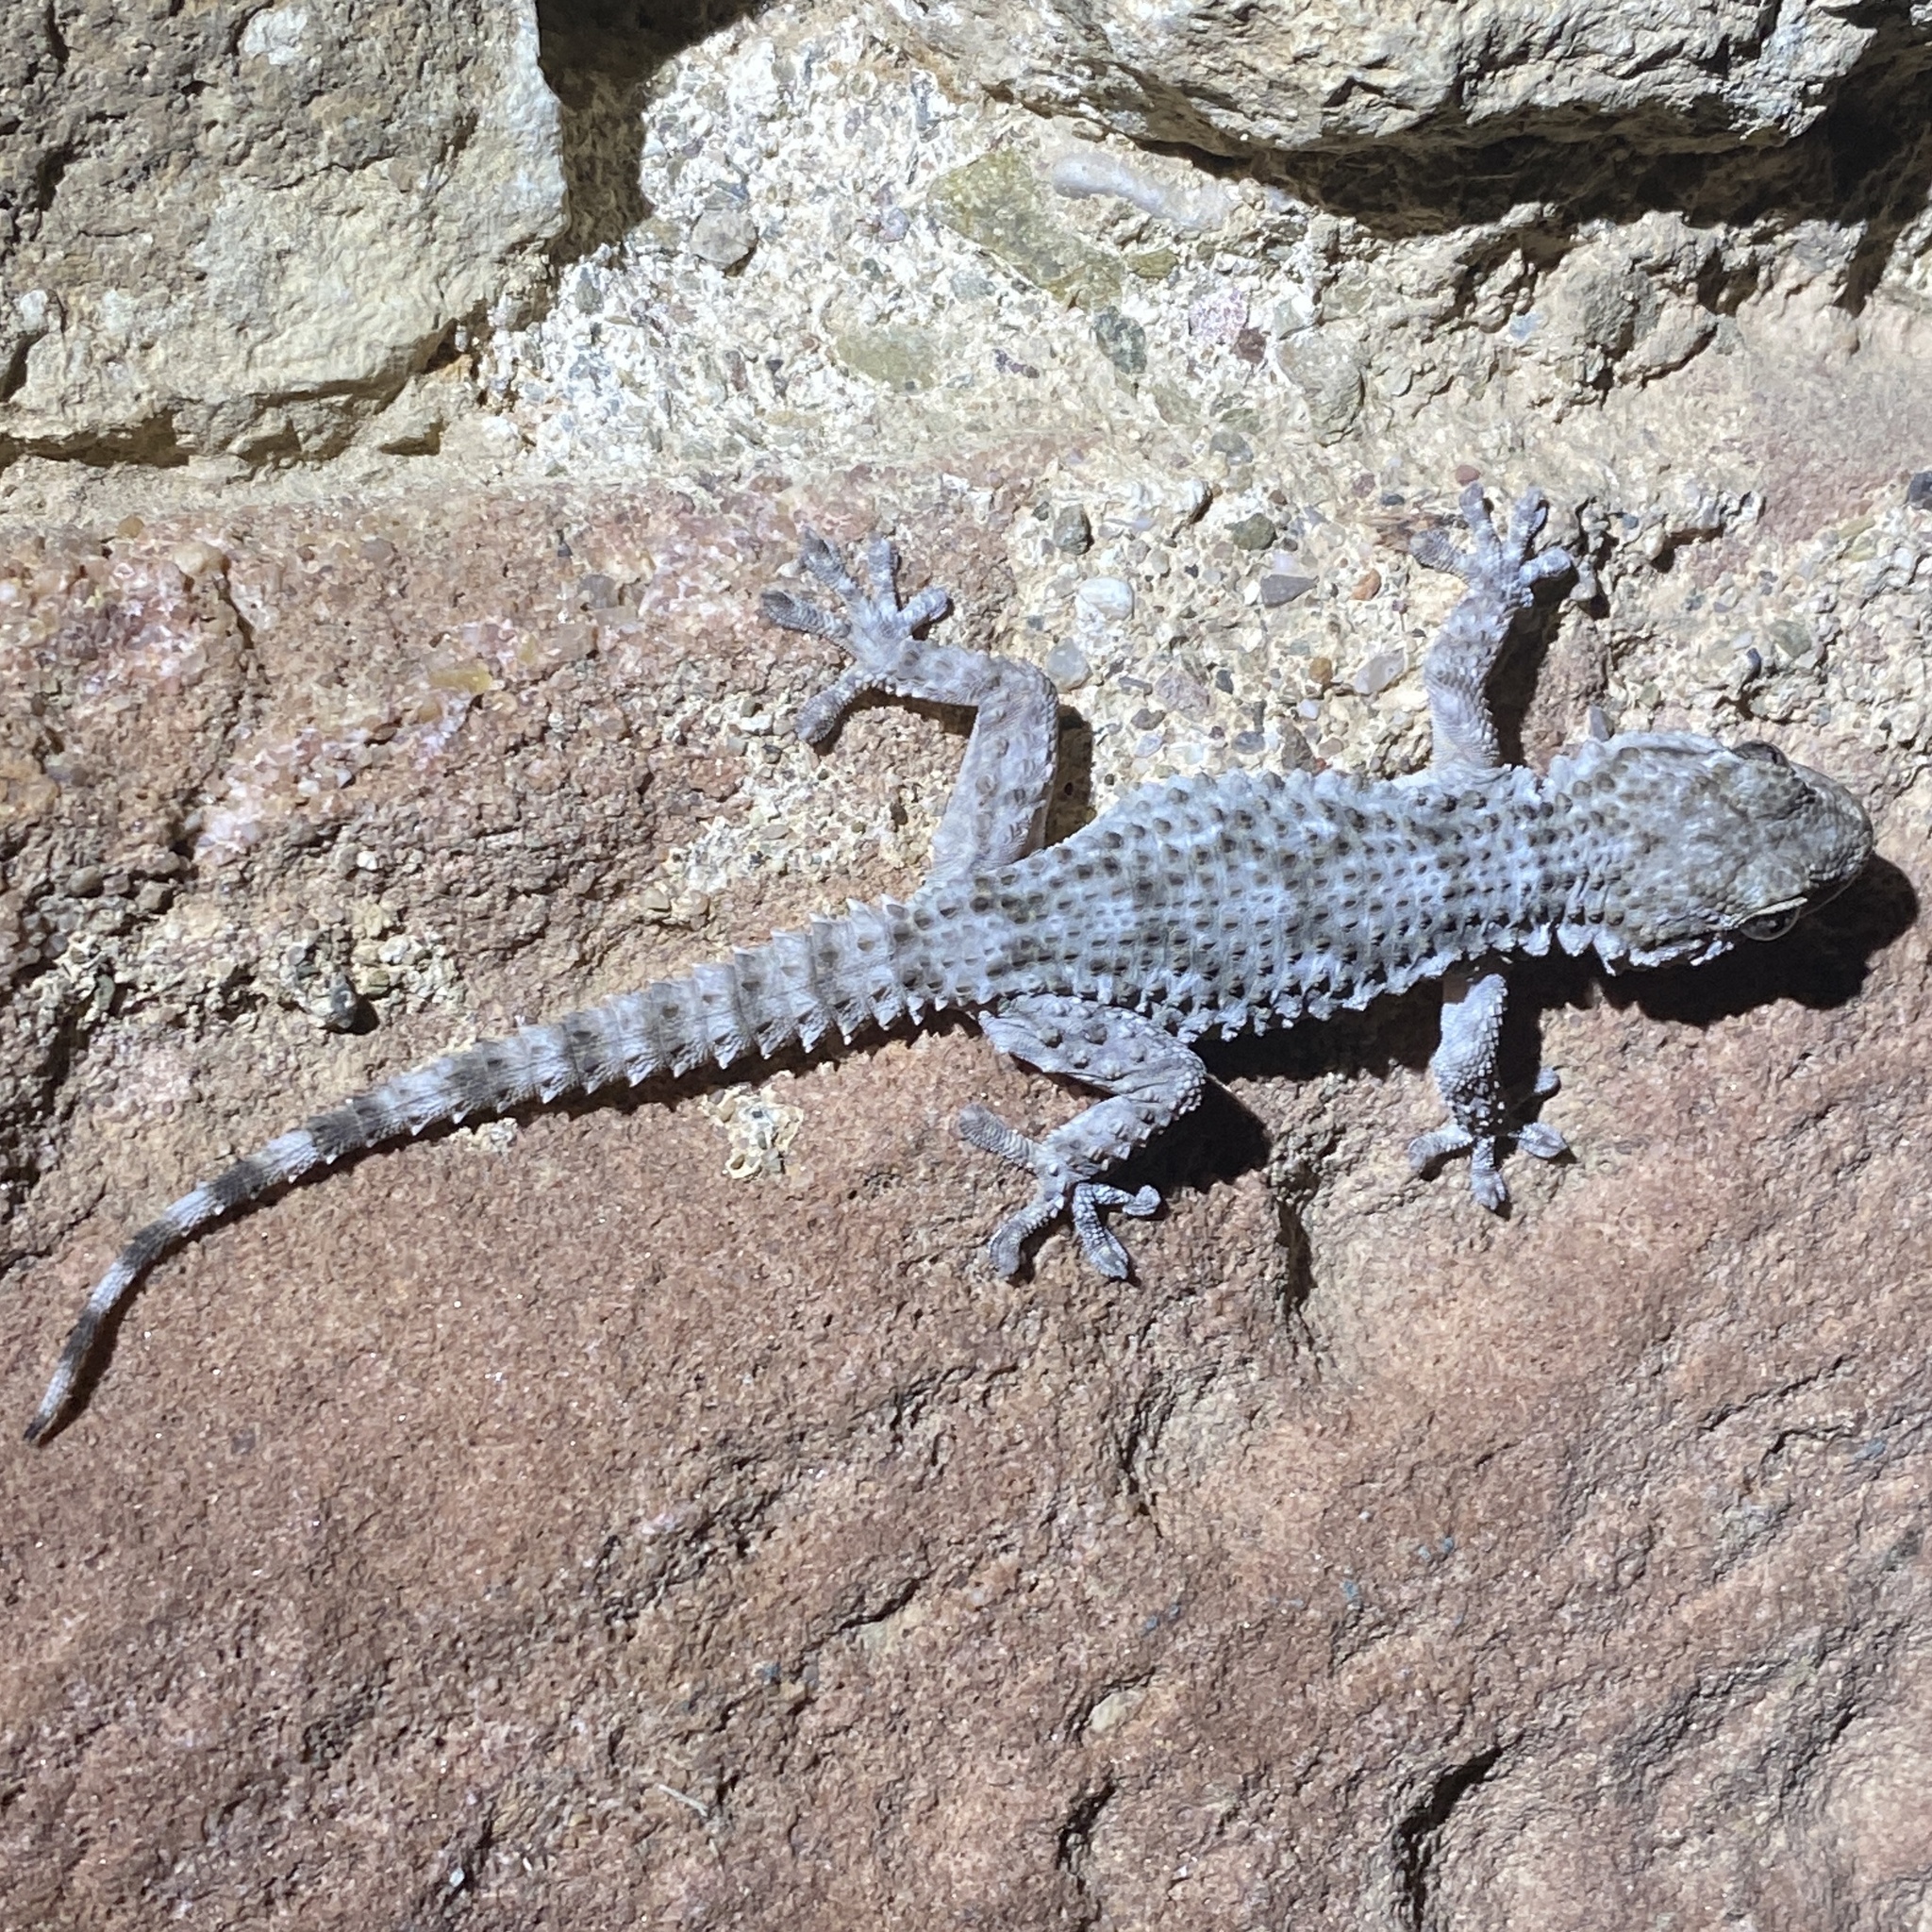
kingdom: Animalia
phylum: Chordata
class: Squamata
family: Phyllodactylidae
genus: Tarentola
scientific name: Tarentola mauritanica
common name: Moorish gecko
